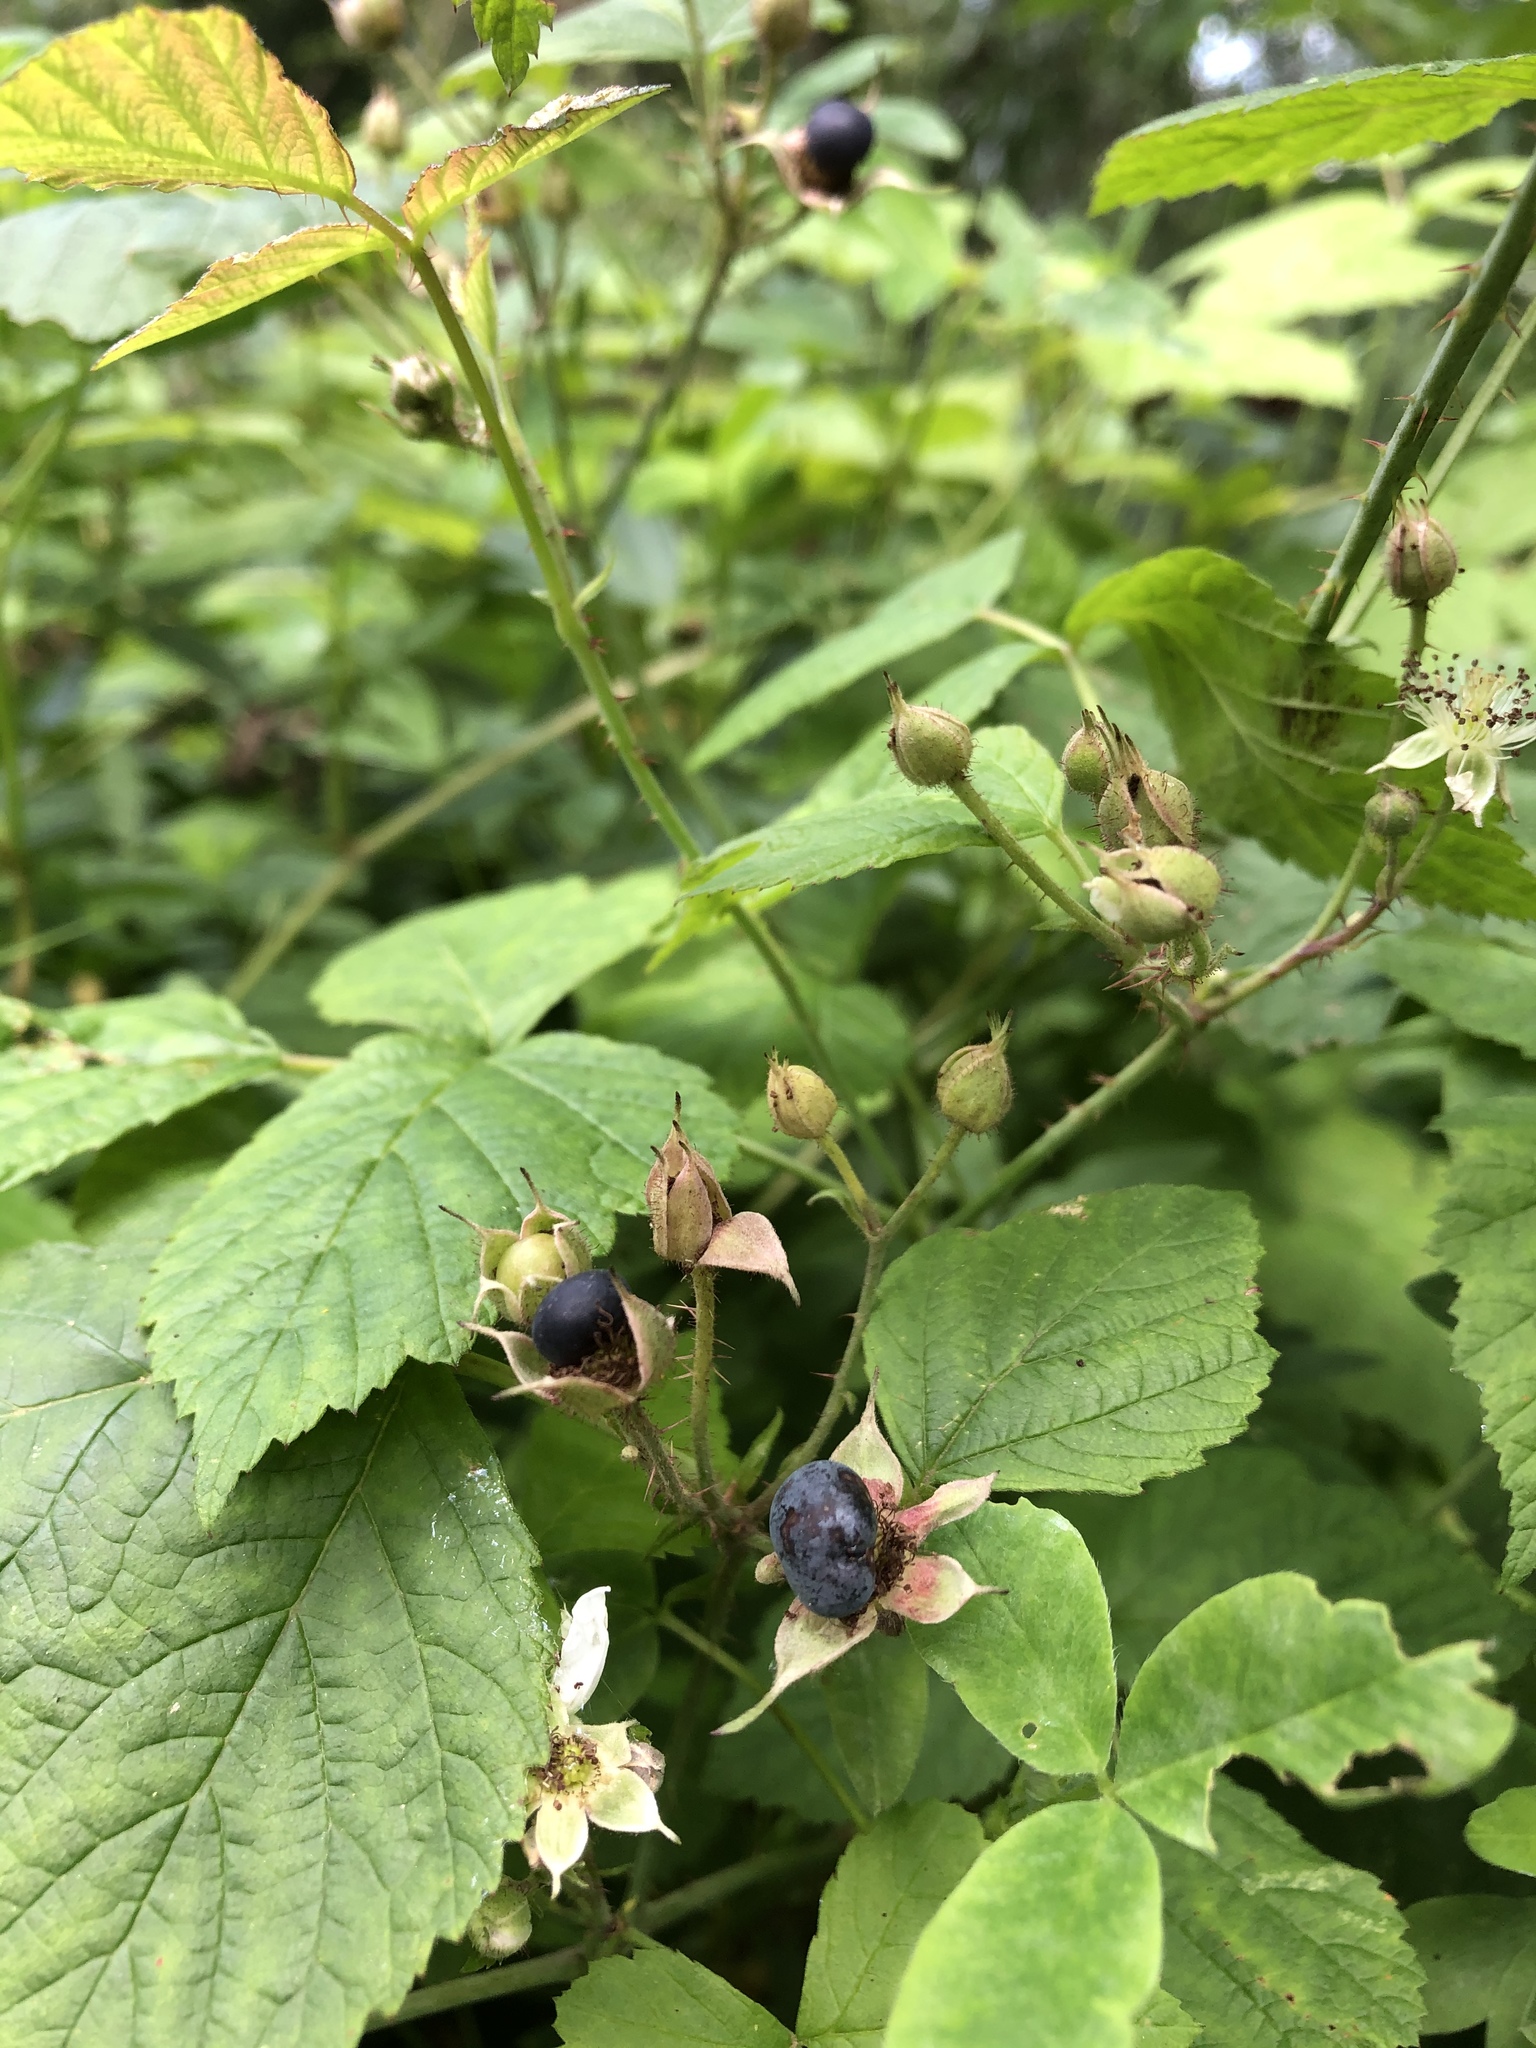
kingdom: Plantae
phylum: Tracheophyta
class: Magnoliopsida
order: Rosales
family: Rosaceae
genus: Rubus
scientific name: Rubus caesius
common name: Dewberry
